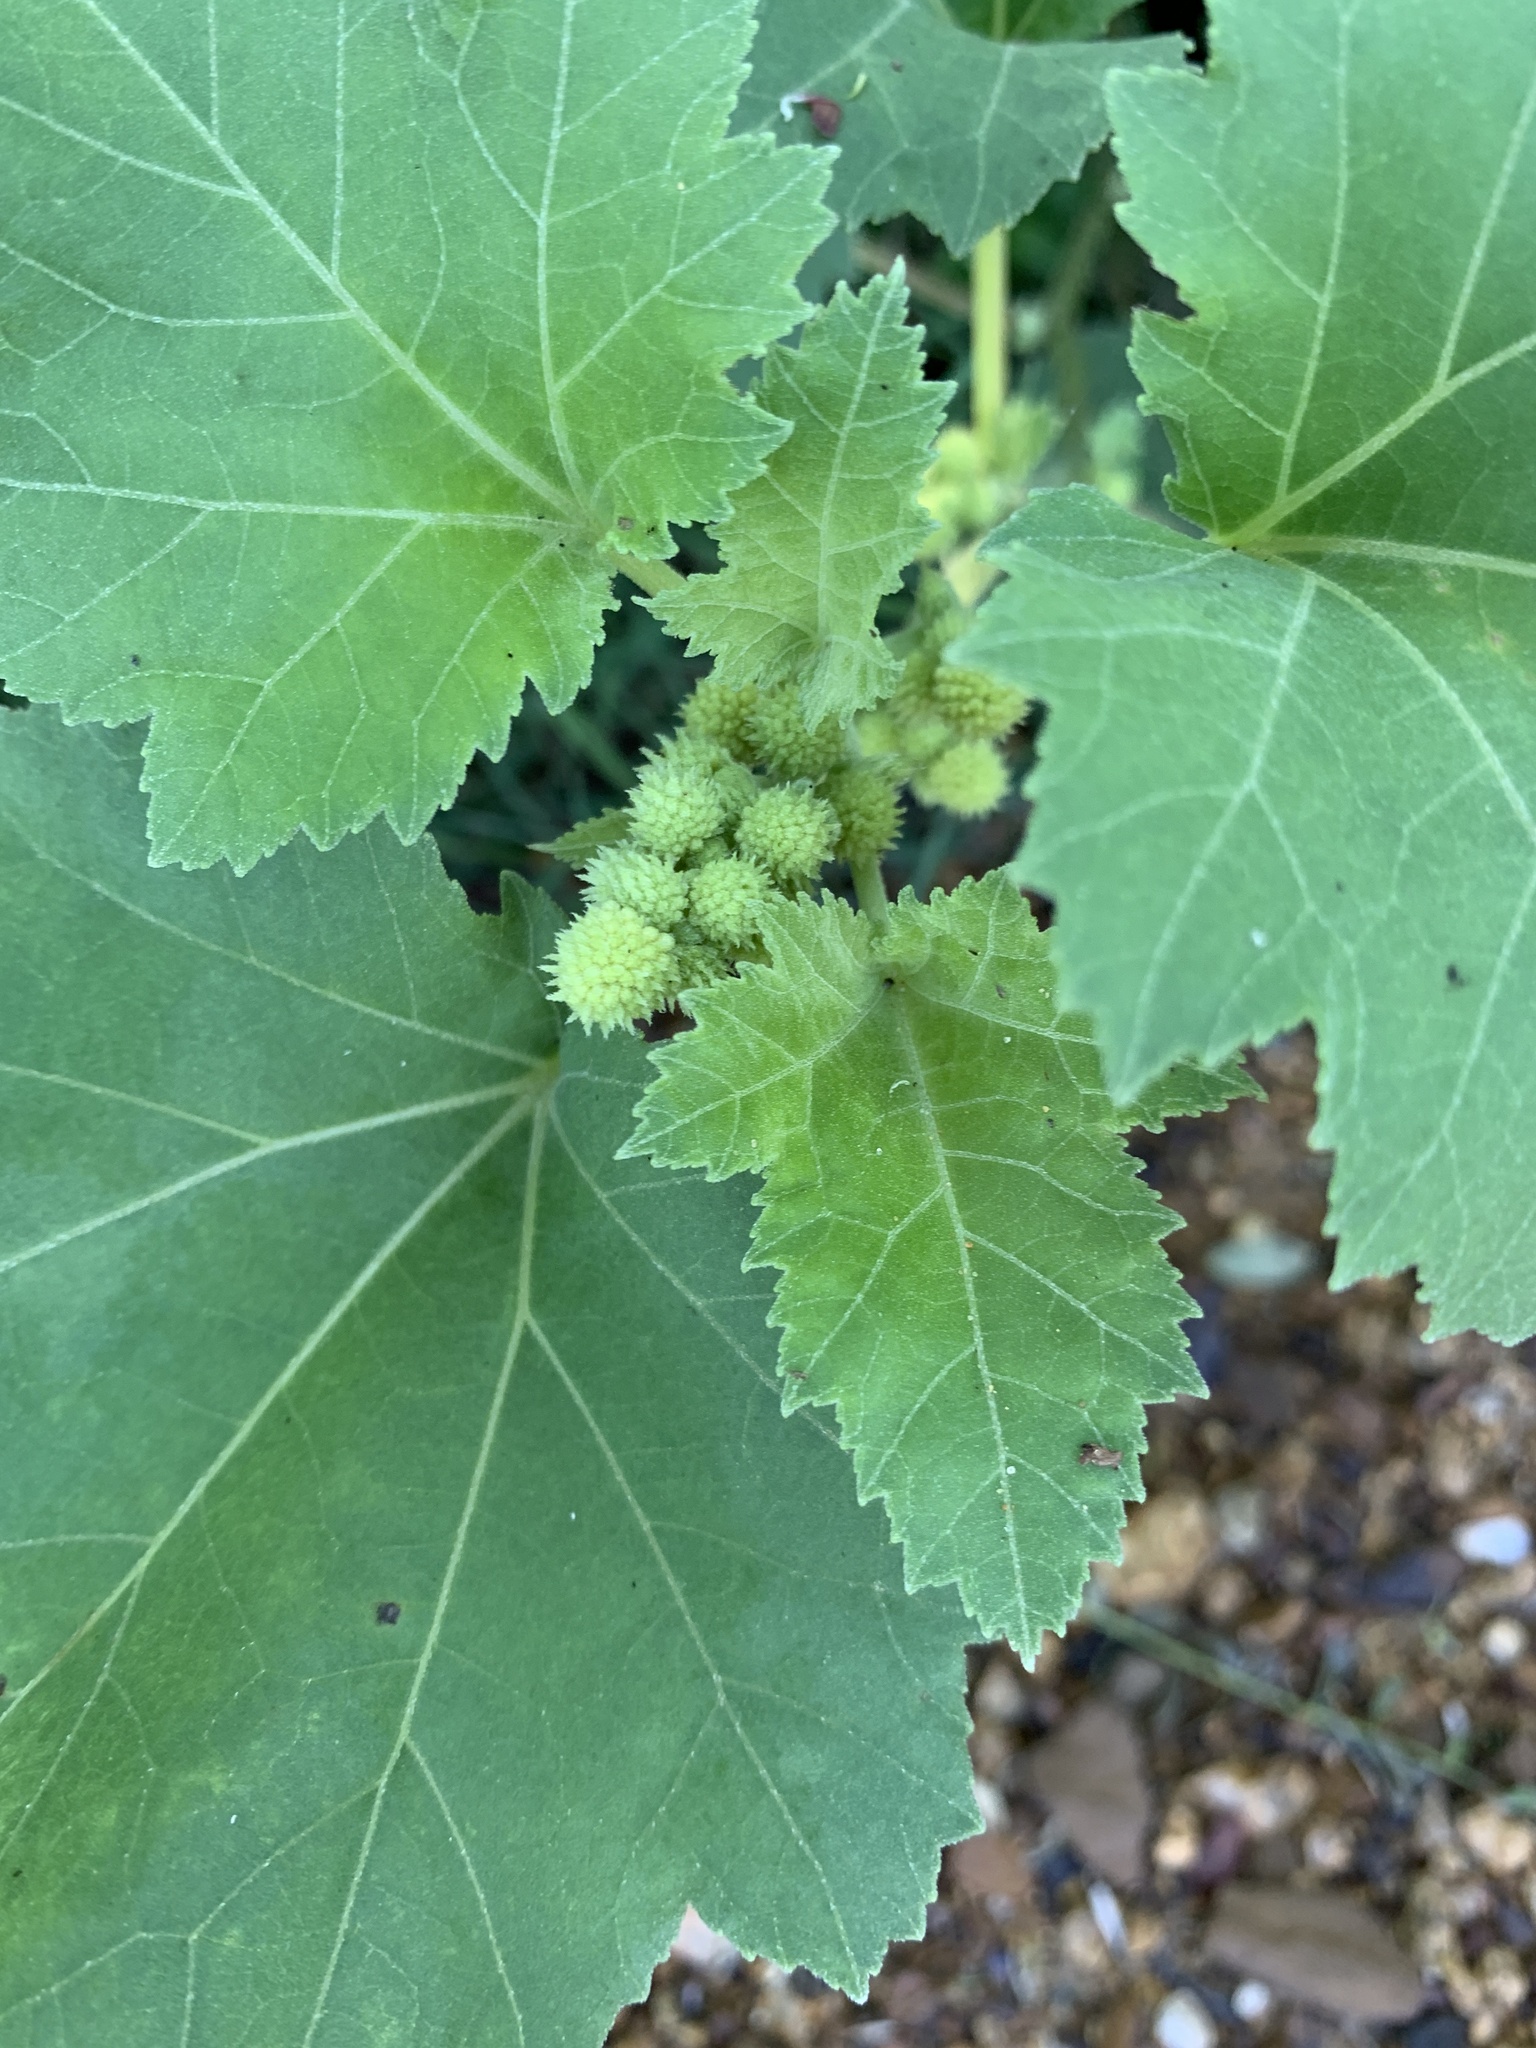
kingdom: Plantae
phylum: Tracheophyta
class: Magnoliopsida
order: Asterales
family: Asteraceae
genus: Xanthium
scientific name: Xanthium strumarium
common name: Rough cocklebur
